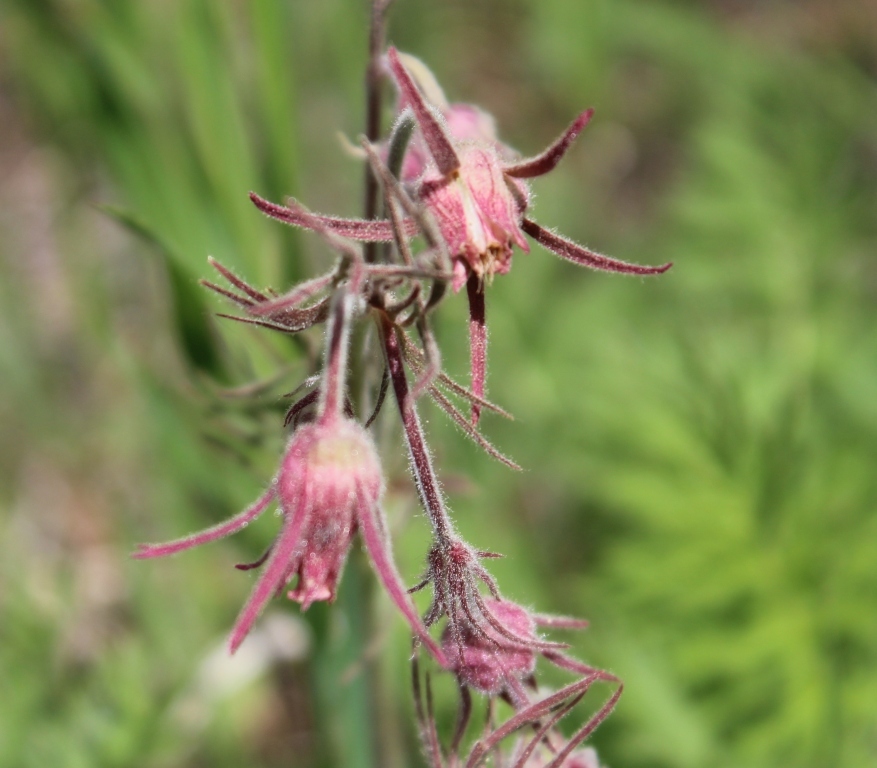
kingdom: Plantae
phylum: Tracheophyta
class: Magnoliopsida
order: Rosales
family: Rosaceae
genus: Geum
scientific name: Geum triflorum
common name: Old man's whiskers
